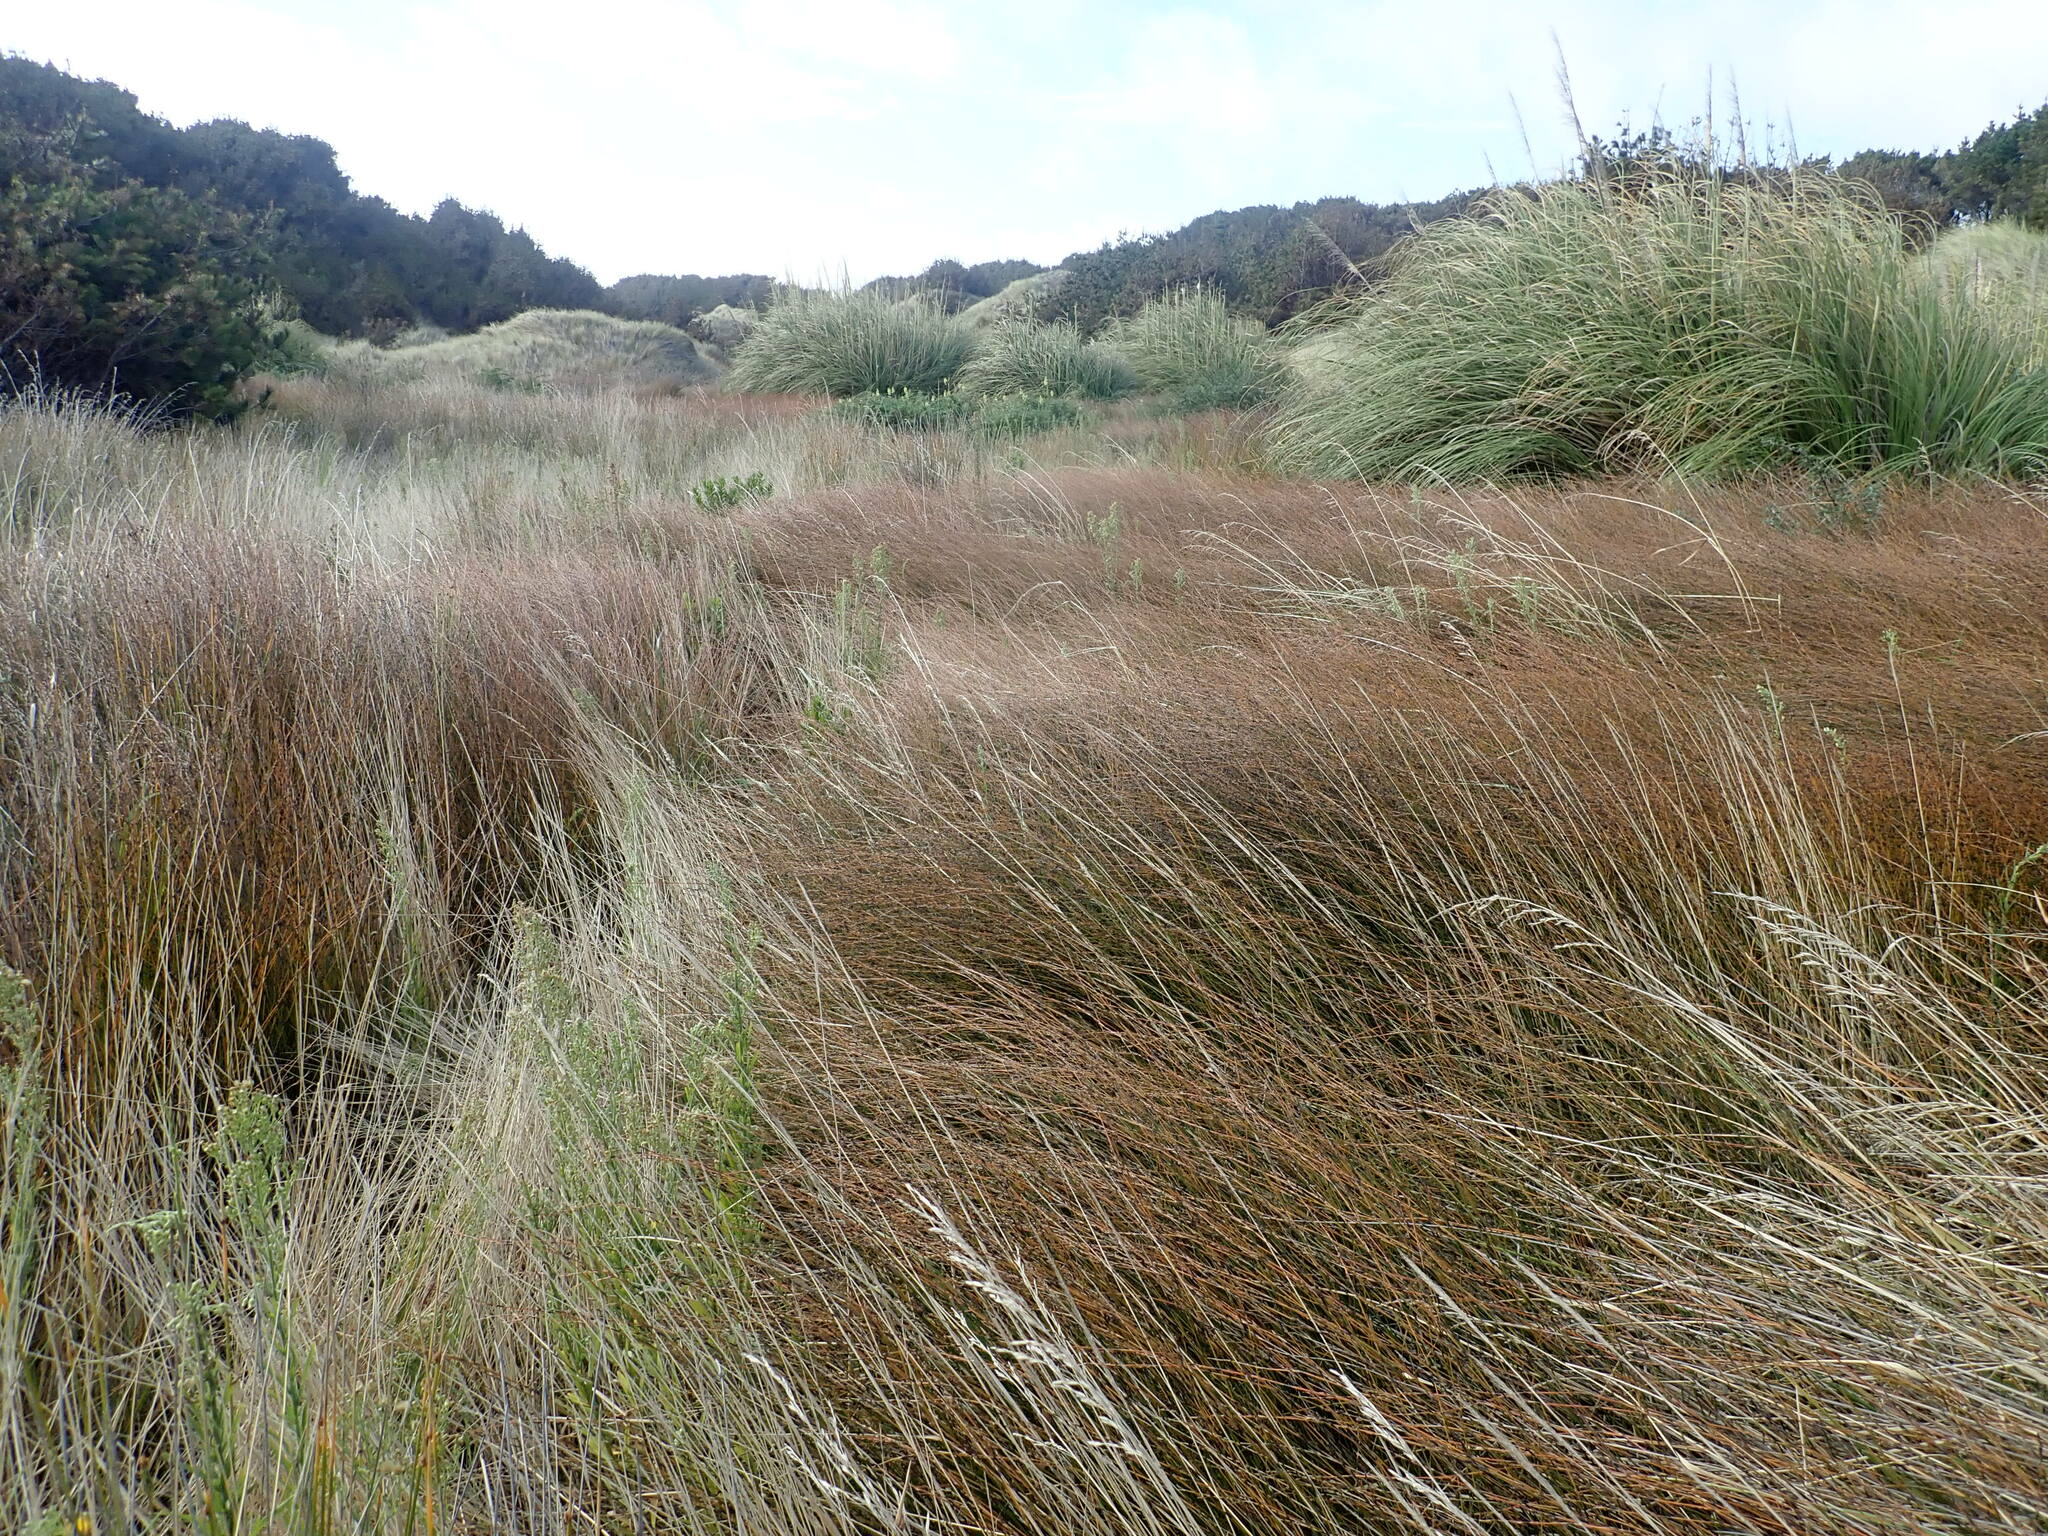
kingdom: Plantae
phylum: Tracheophyta
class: Liliopsida
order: Poales
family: Restionaceae
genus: Apodasmia
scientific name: Apodasmia similis
